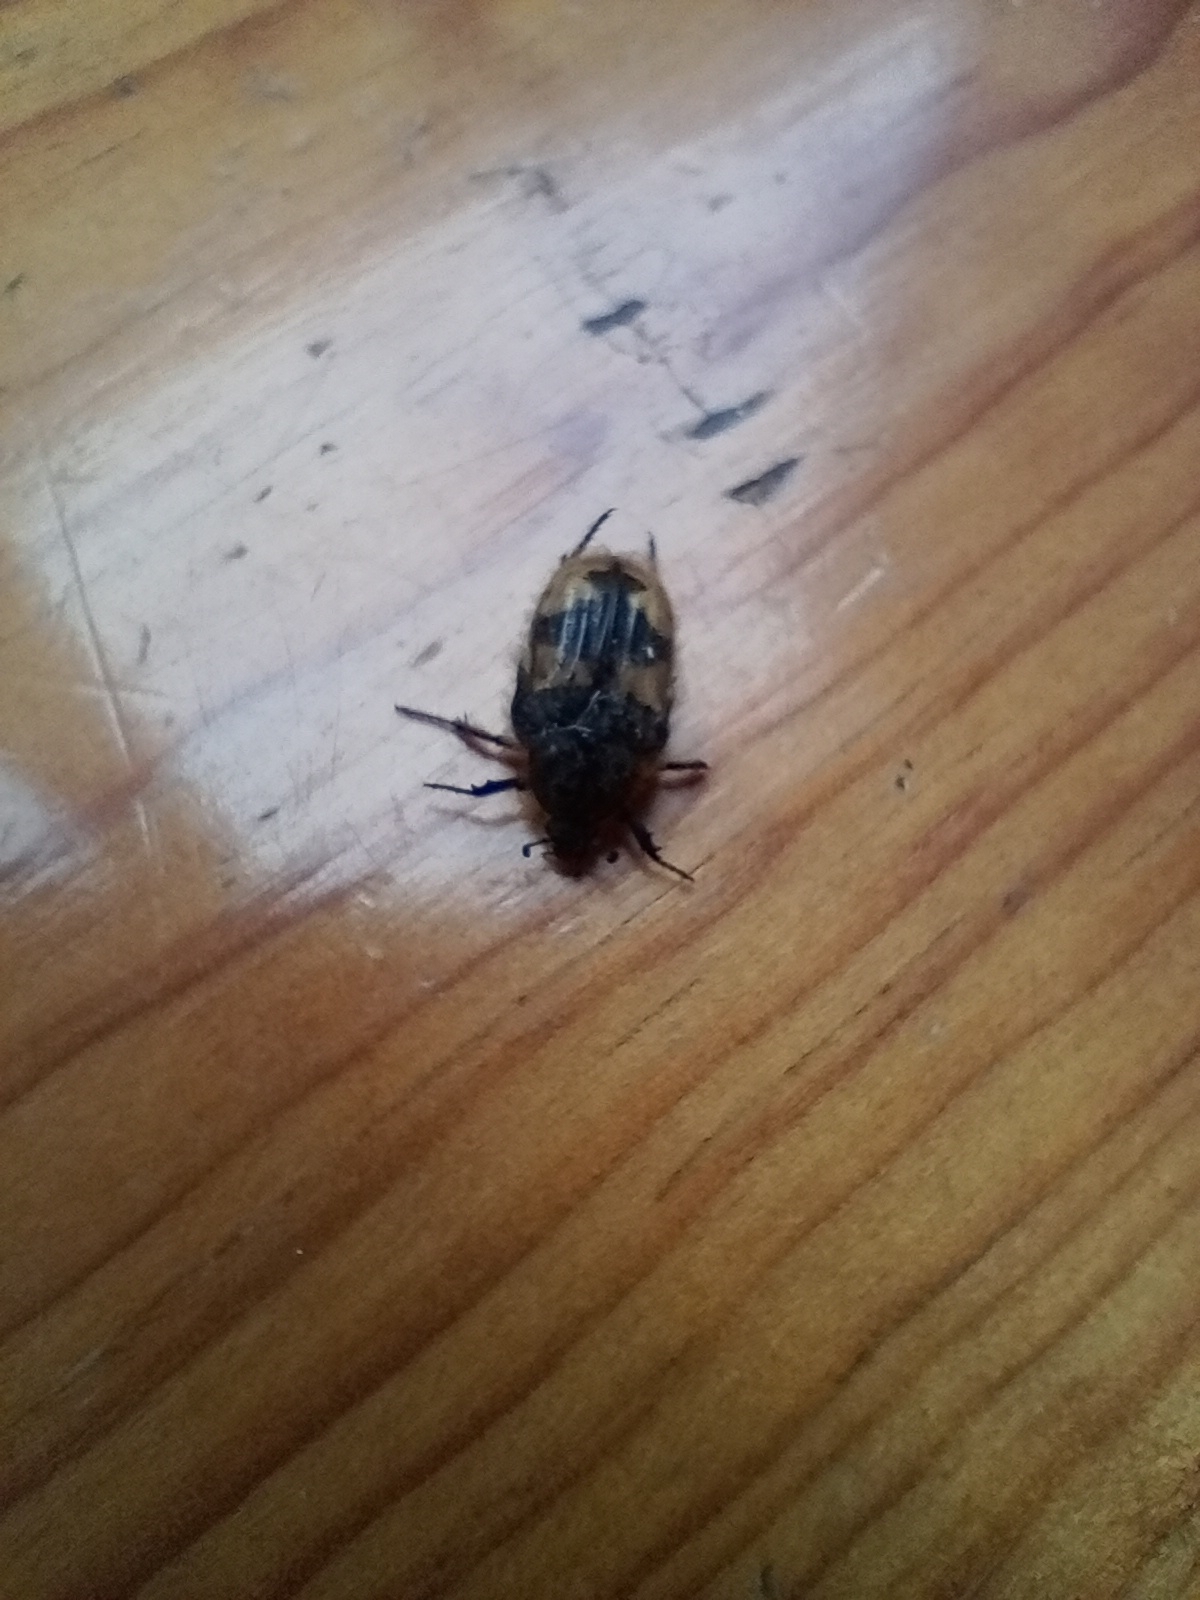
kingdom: Animalia
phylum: Arthropoda
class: Insecta
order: Coleoptera
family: Scarabaeidae
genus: Euphoria
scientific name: Euphoria basalis
